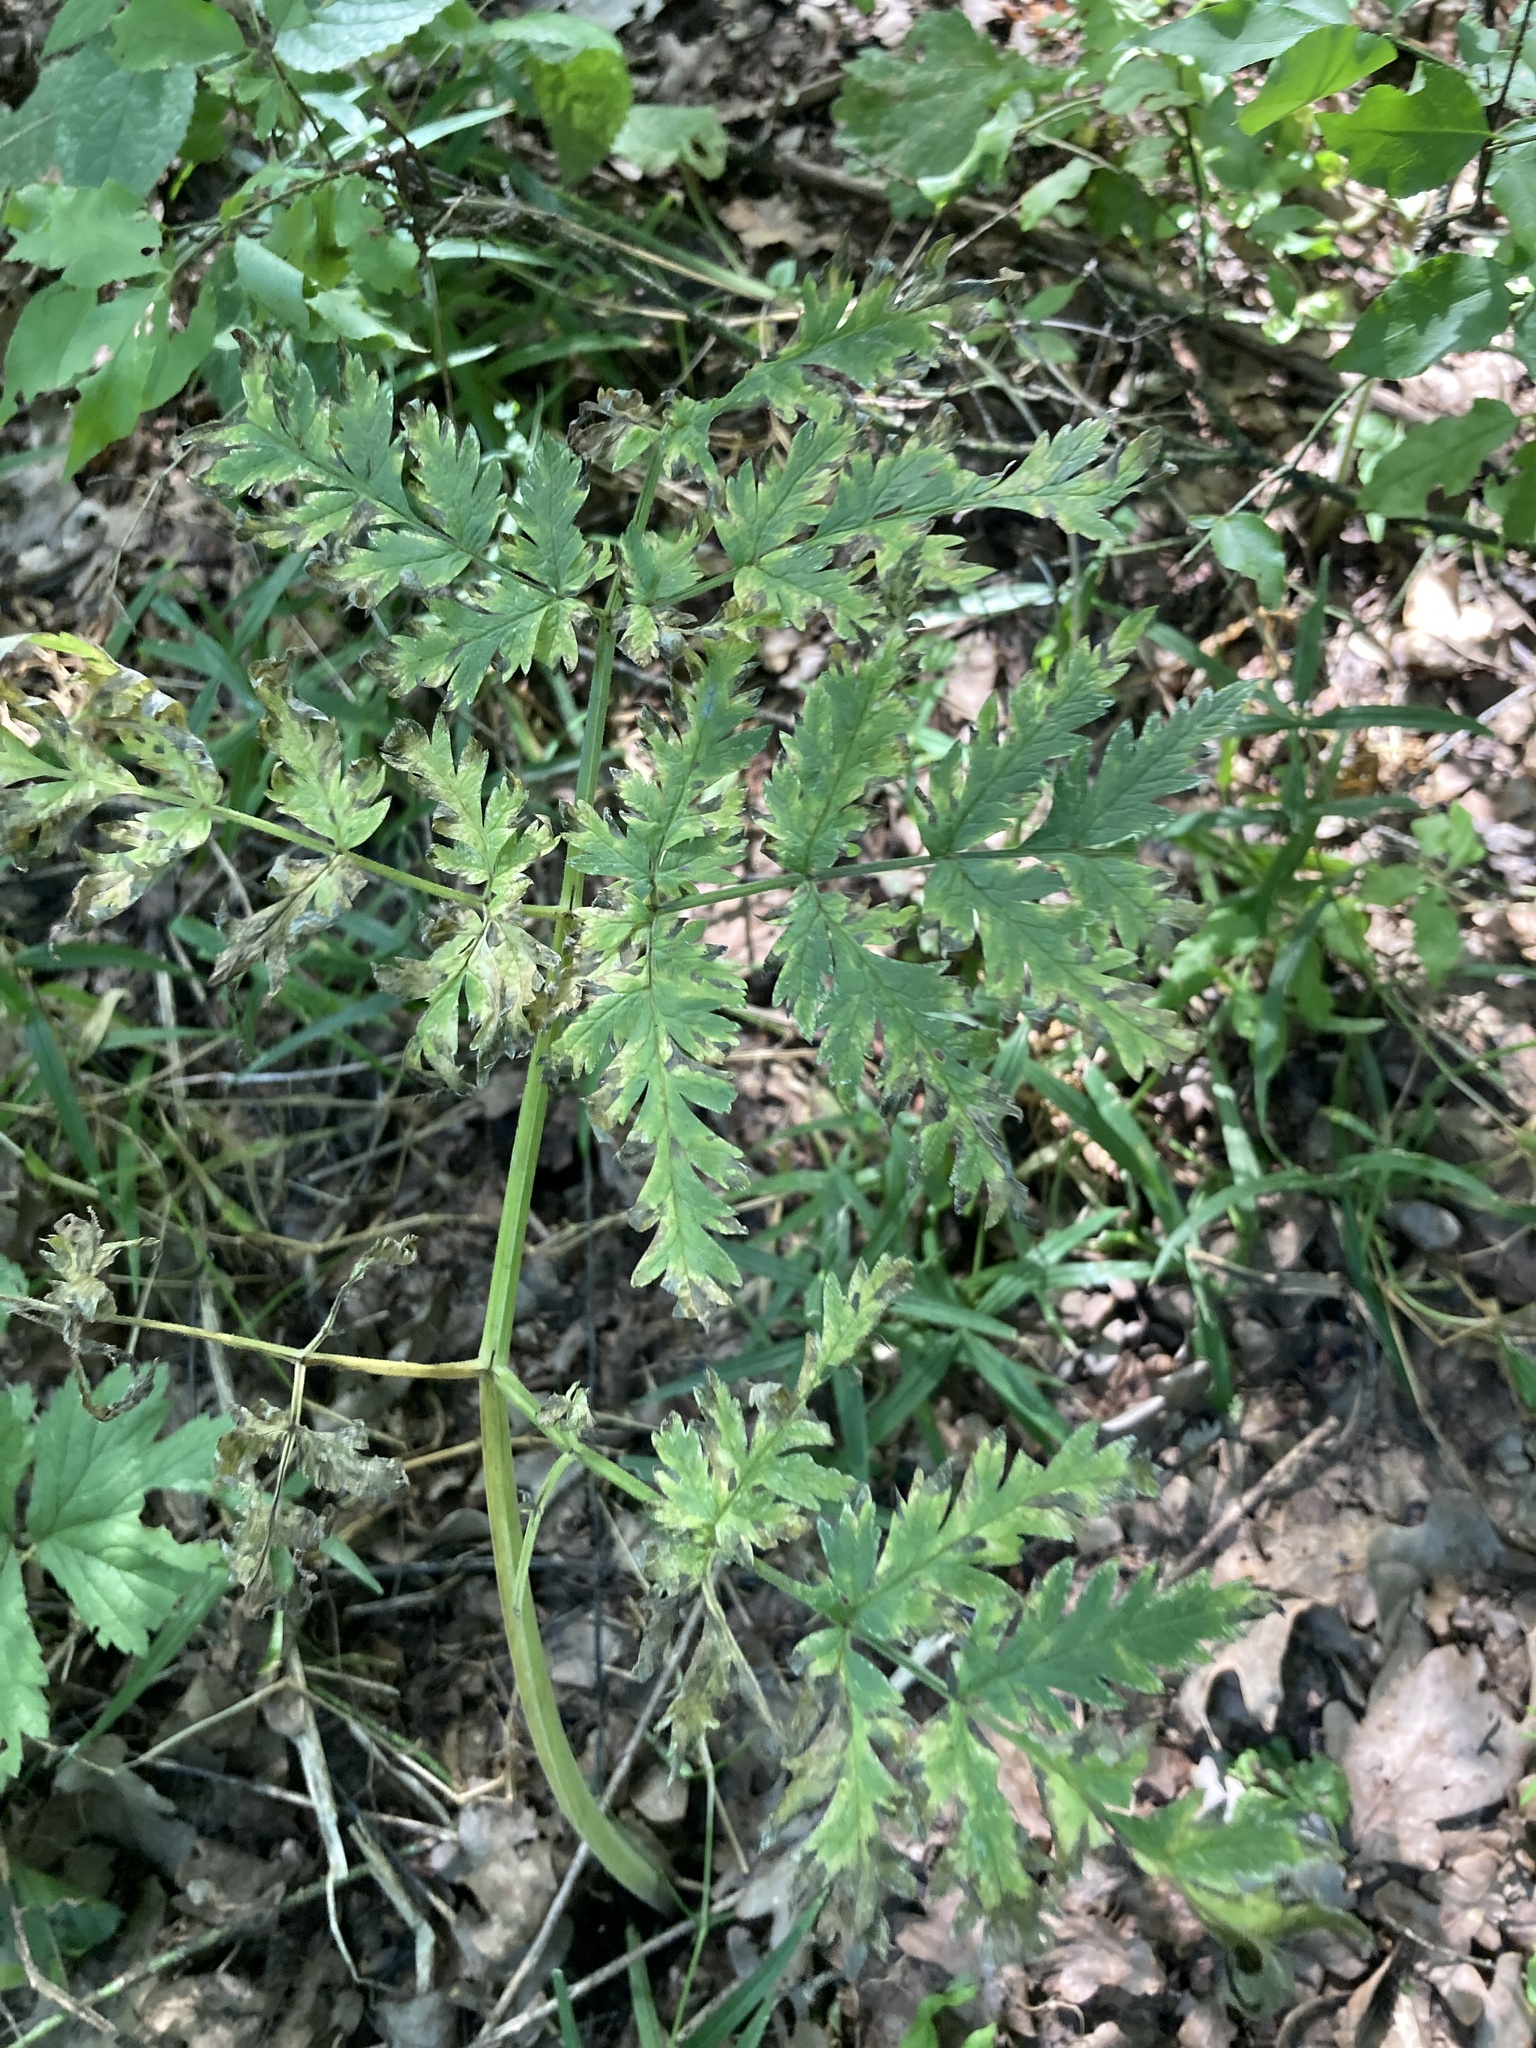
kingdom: Plantae
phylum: Tracheophyta
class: Magnoliopsida
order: Apiales
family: Apiaceae
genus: Anthriscus
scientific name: Anthriscus sylvestris
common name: Cow parsley
